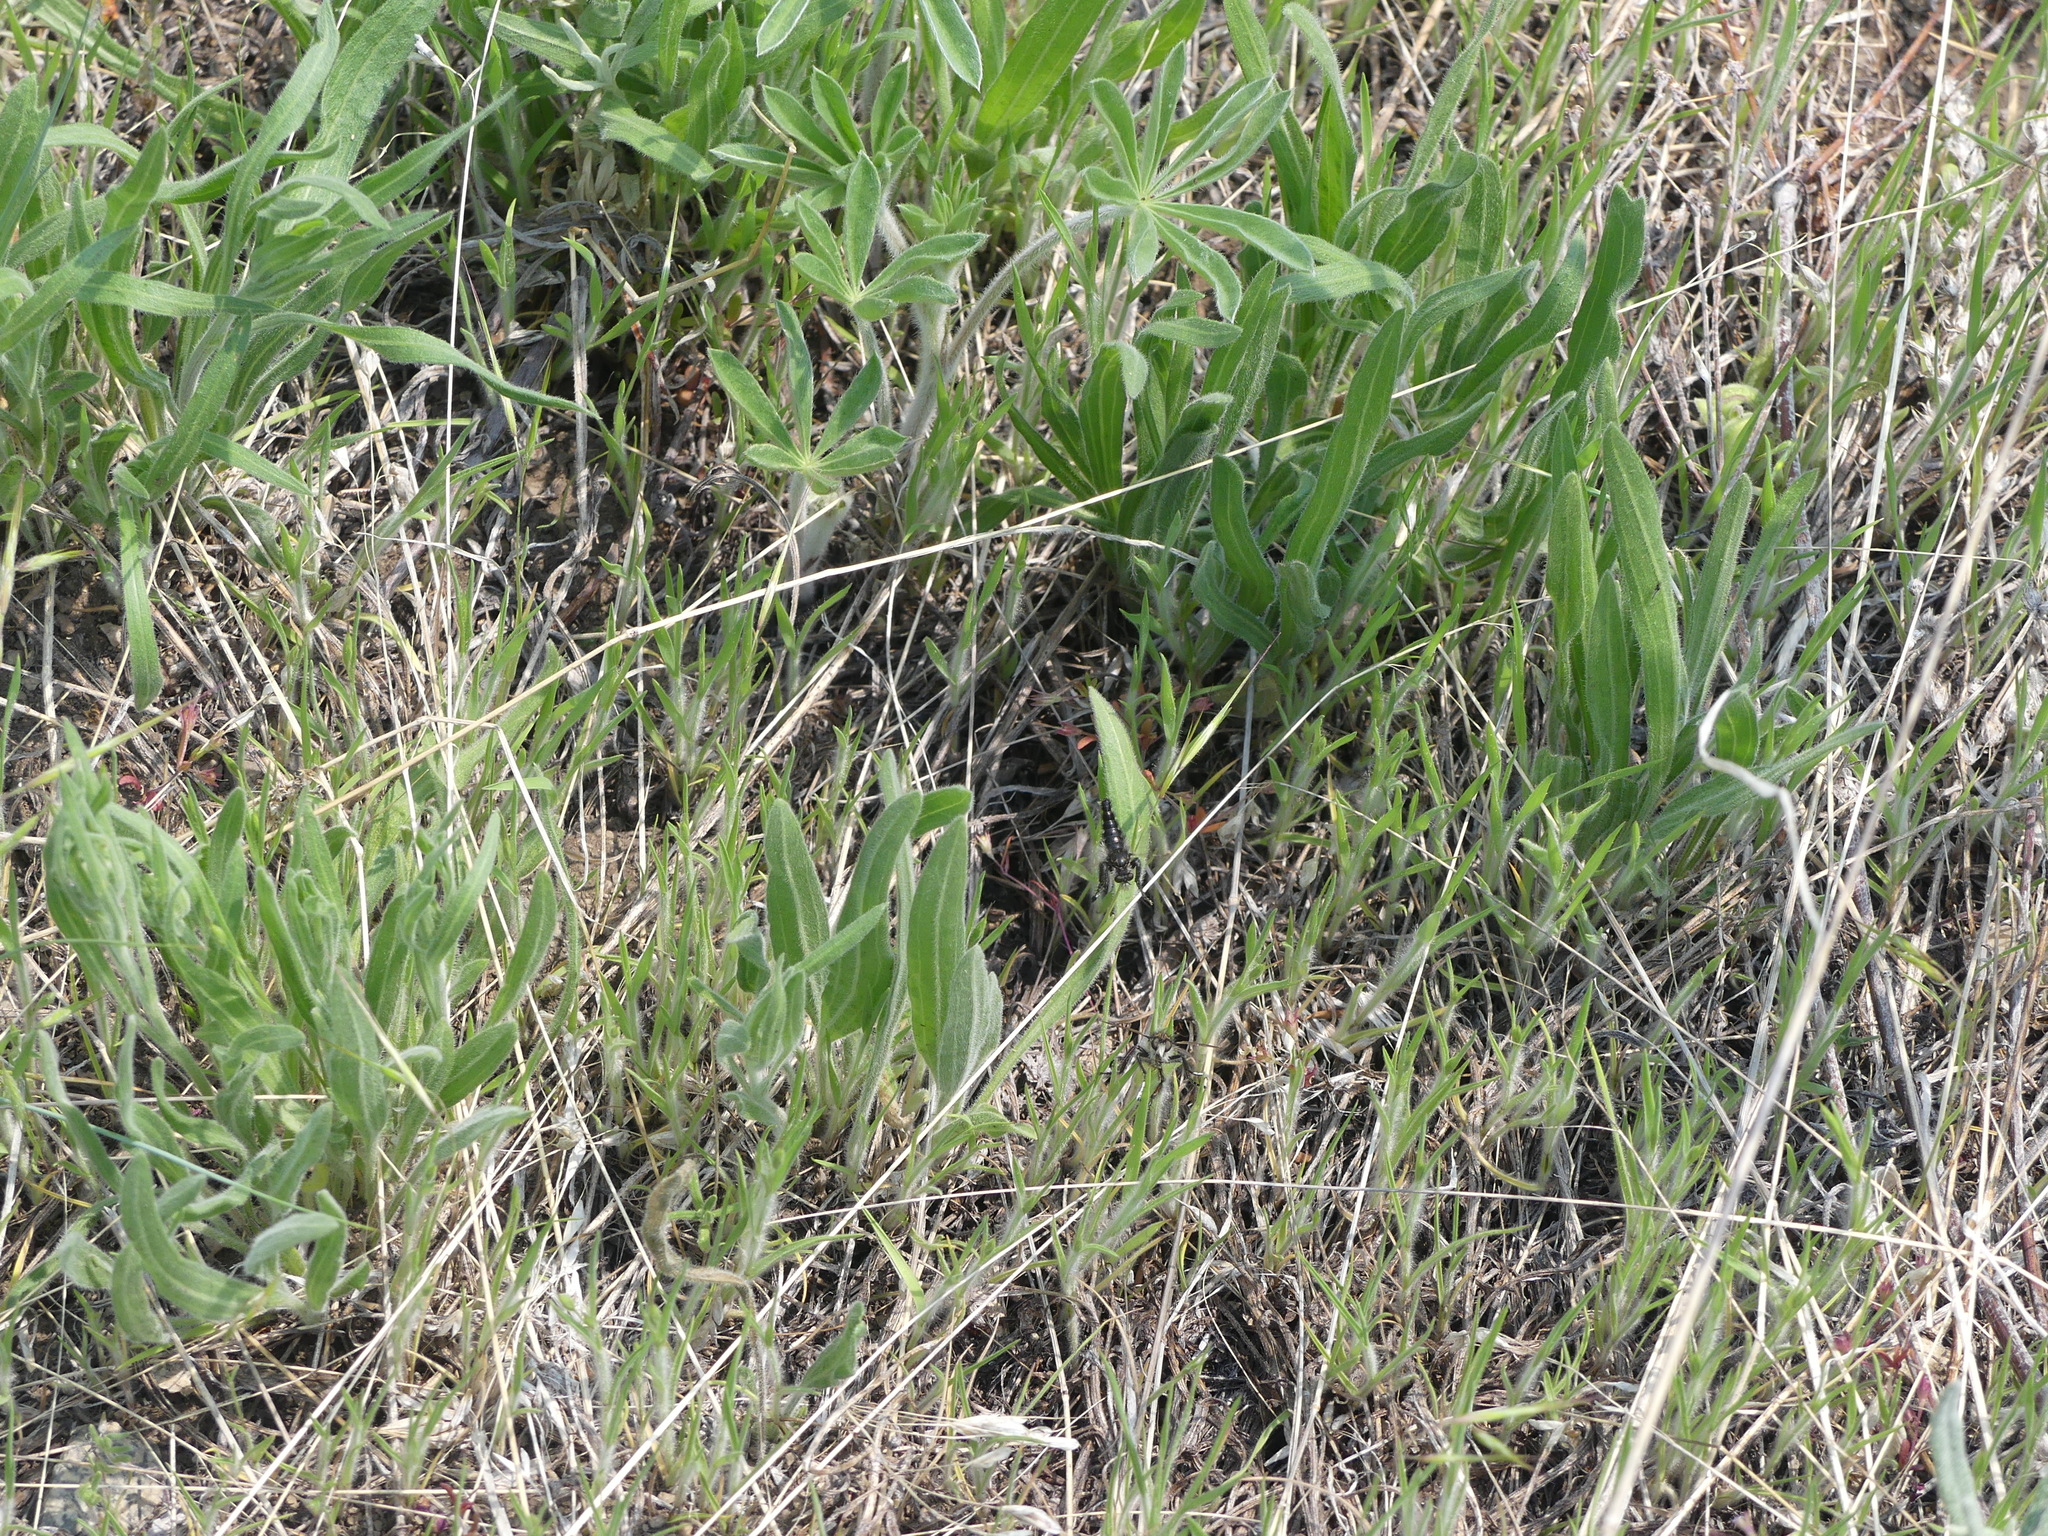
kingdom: Animalia
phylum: Arthropoda
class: Insecta
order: Diptera
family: Asilidae
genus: Cyrtopogon
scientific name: Cyrtopogon willistoni
